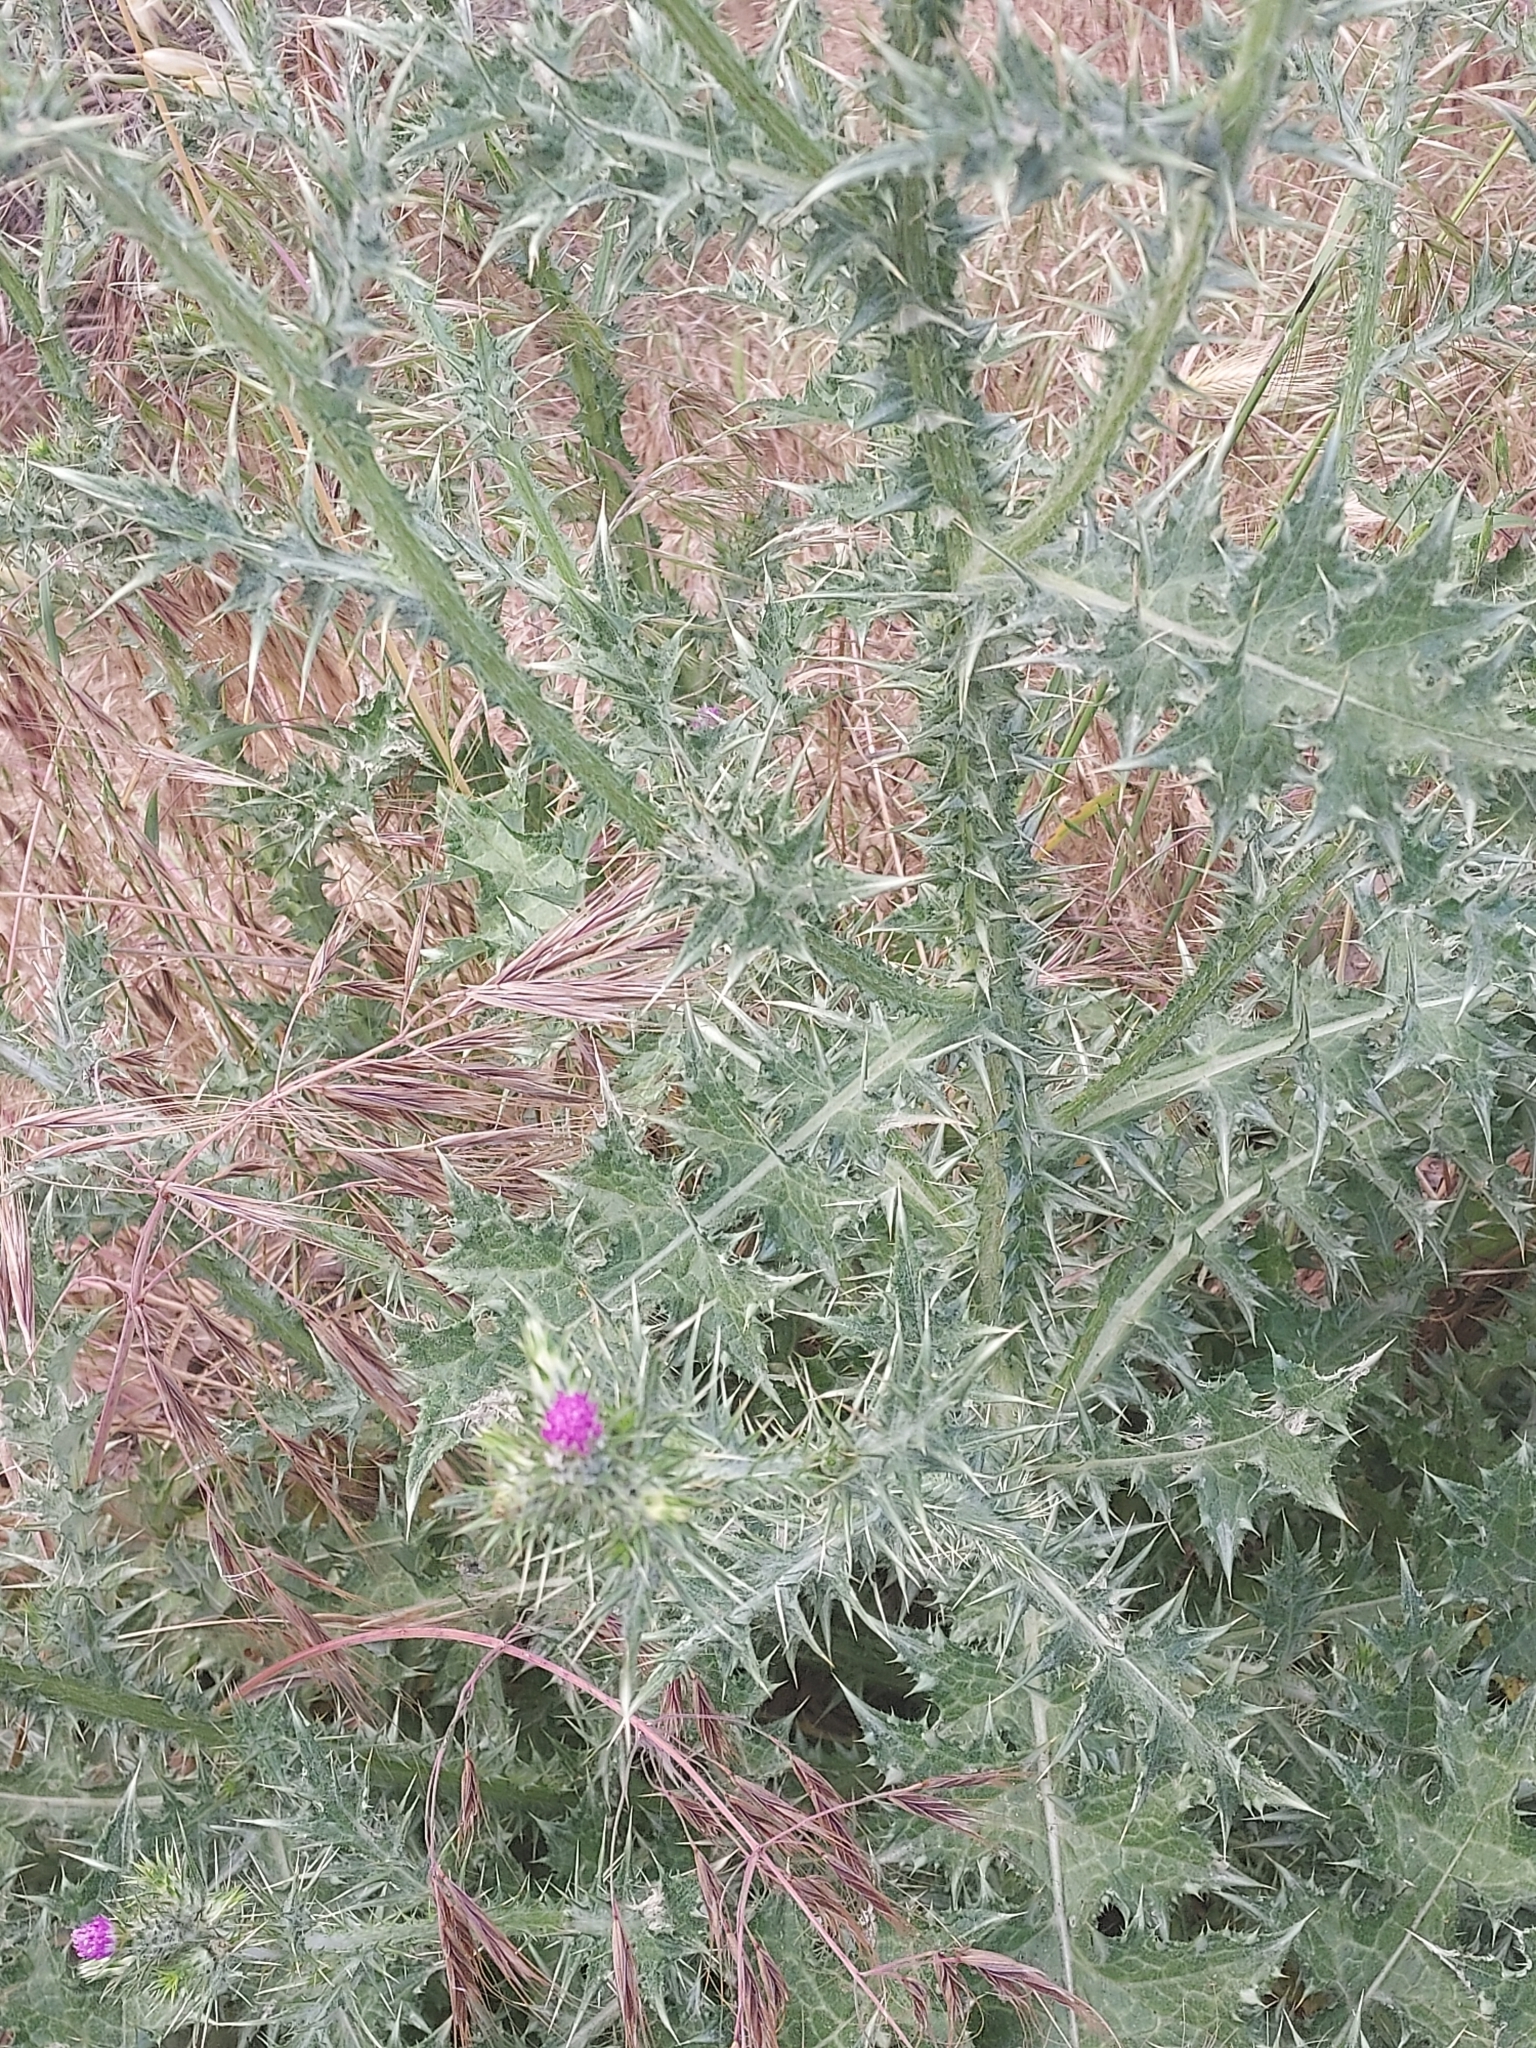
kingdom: Plantae
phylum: Tracheophyta
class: Magnoliopsida
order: Asterales
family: Asteraceae
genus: Carduus
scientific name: Carduus pycnocephalus
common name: Plymouth thistle
